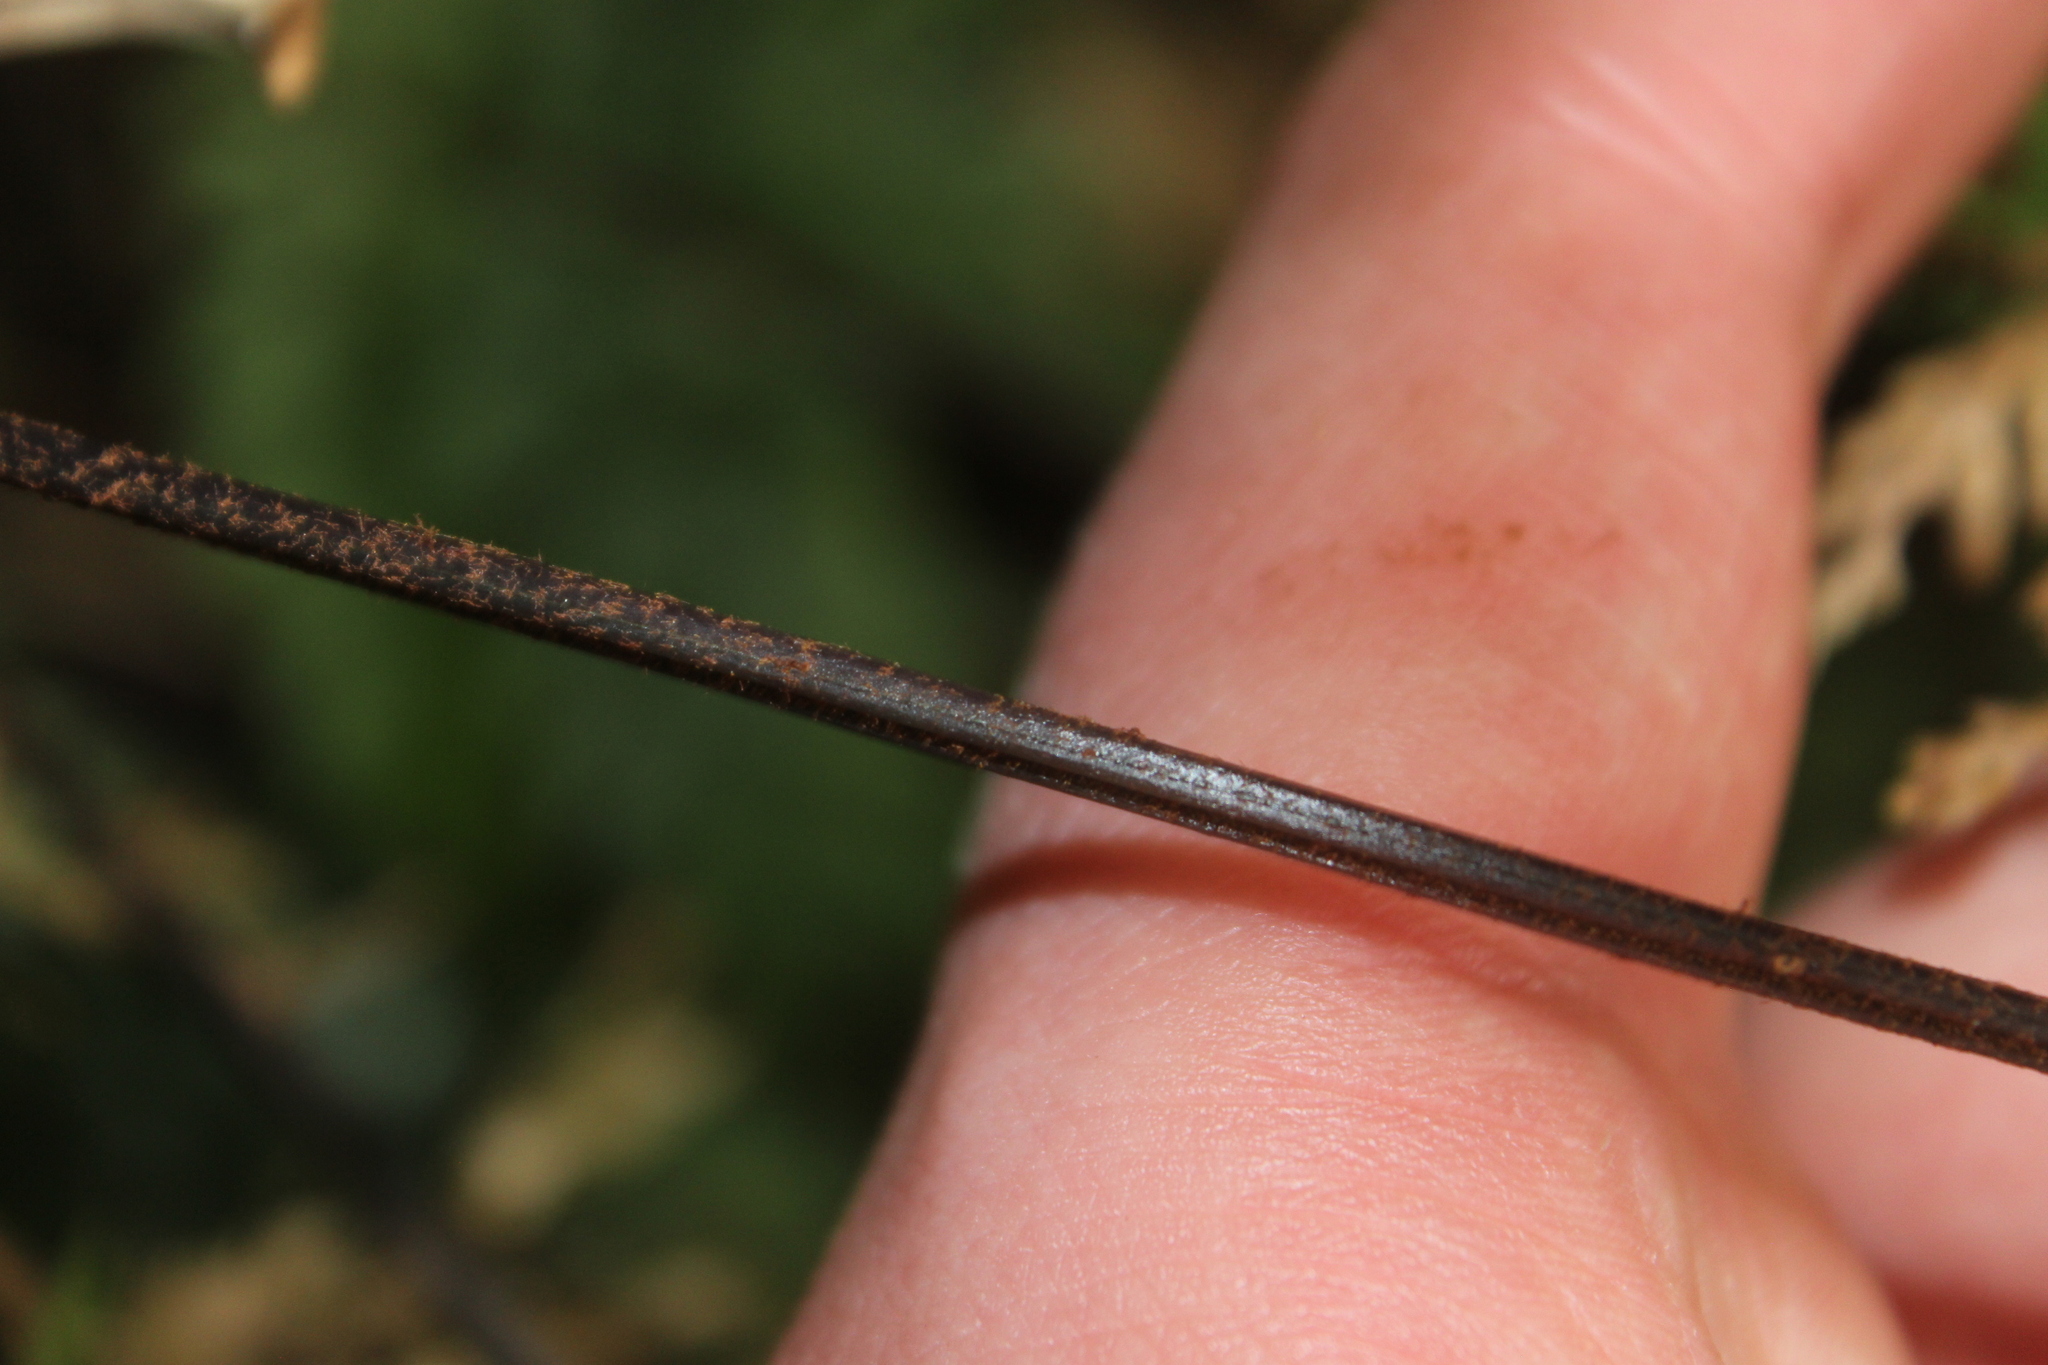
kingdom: Plantae
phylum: Tracheophyta
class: Polypodiopsida
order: Polypodiales
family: Dryopteridaceae
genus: Parapolystichum
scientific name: Parapolystichum glabellum
